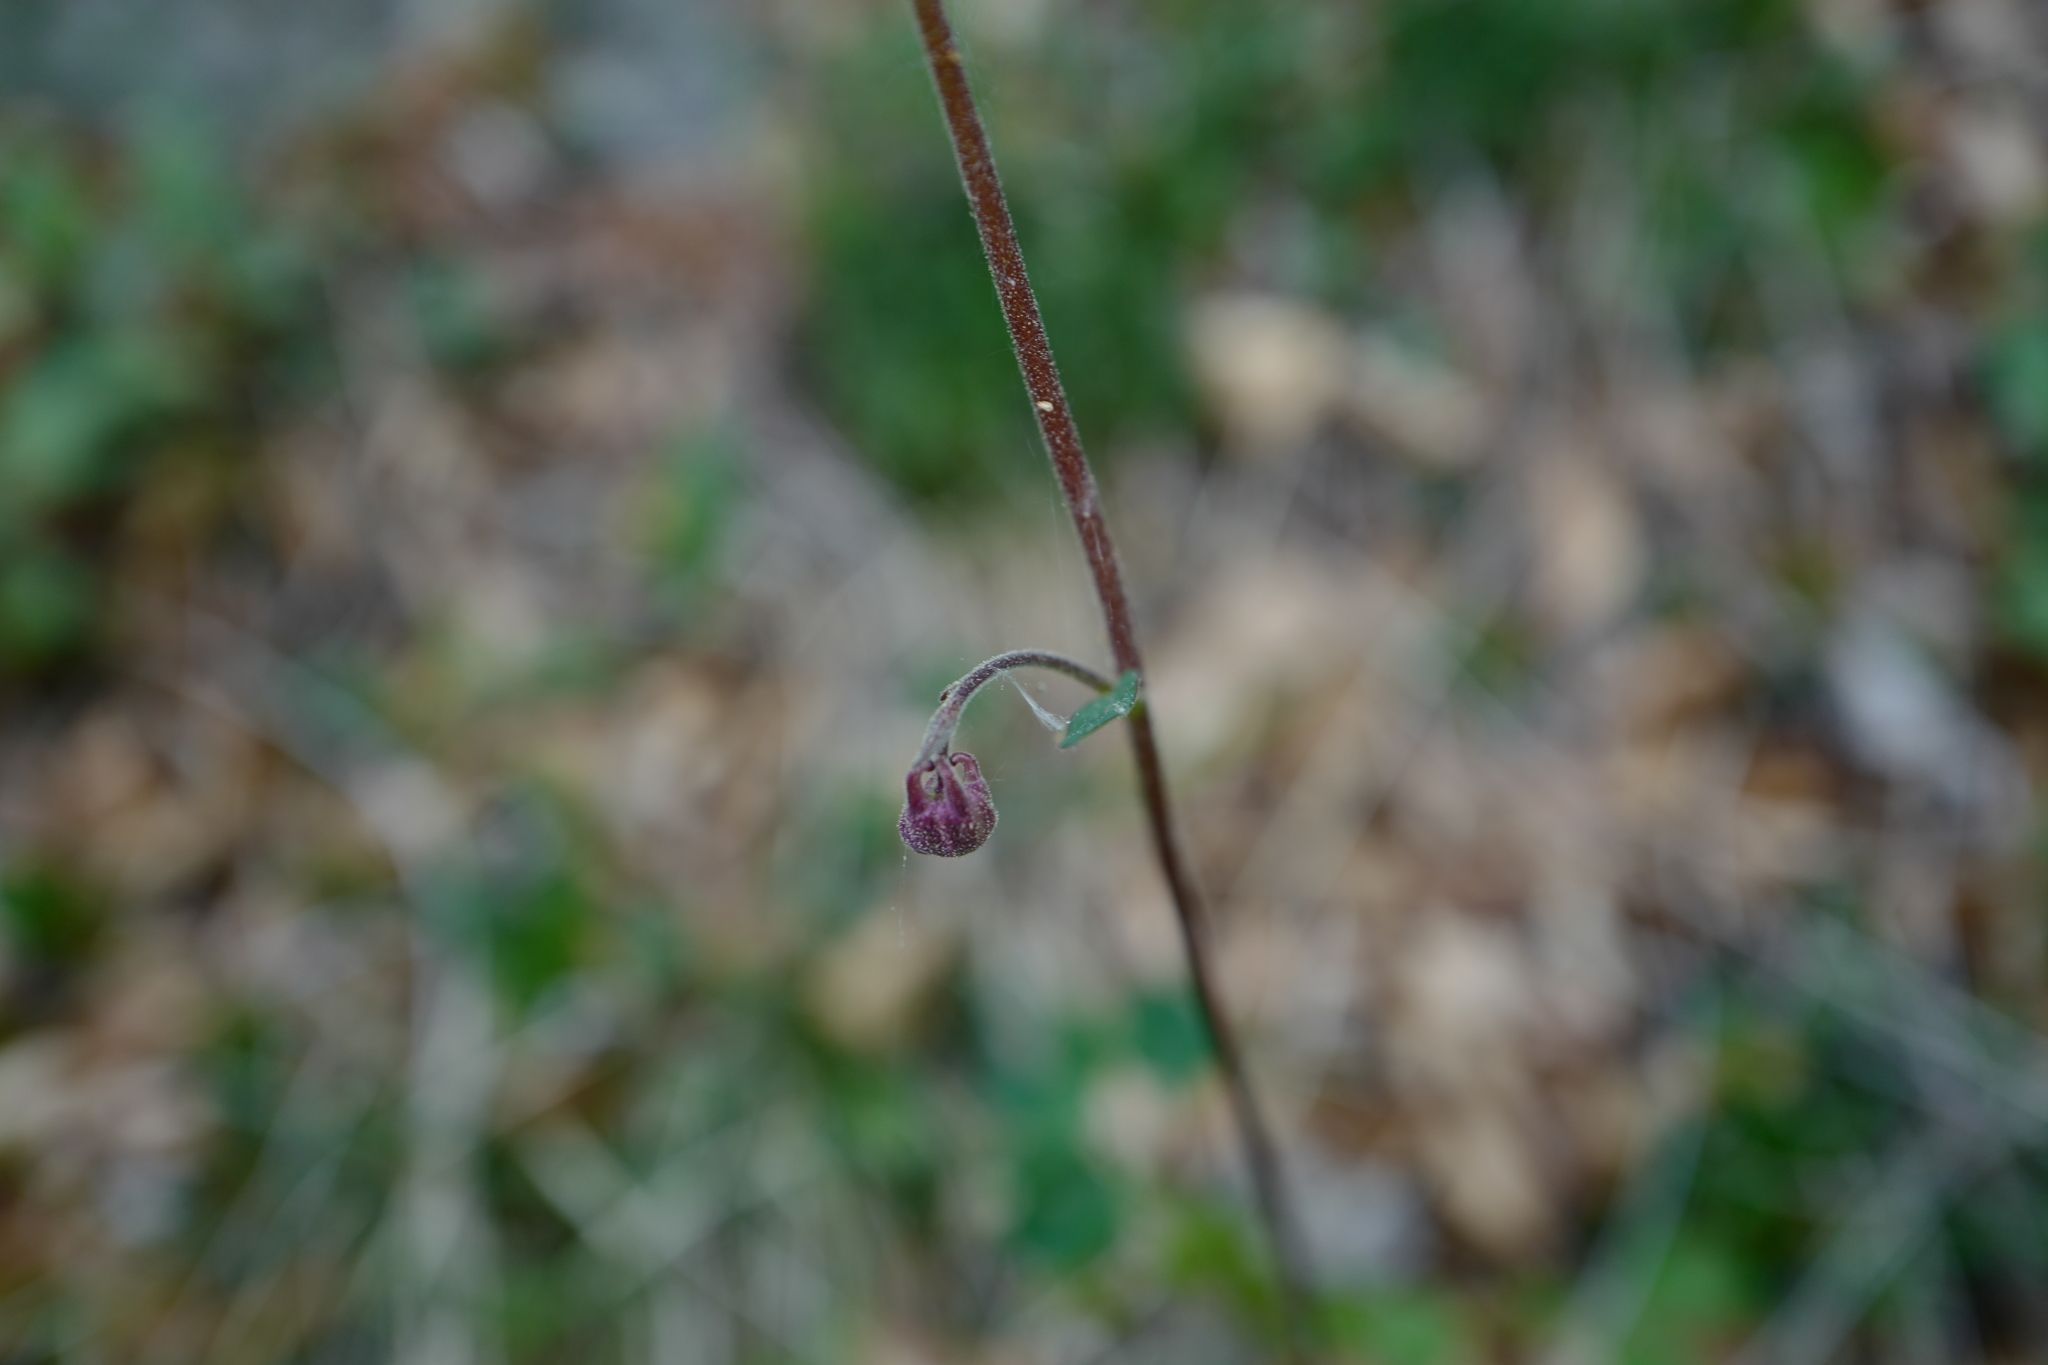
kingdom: Plantae
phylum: Tracheophyta
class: Magnoliopsida
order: Ranunculales
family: Ranunculaceae
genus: Aquilegia
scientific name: Aquilegia nigricans
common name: Bulgarian columbine
